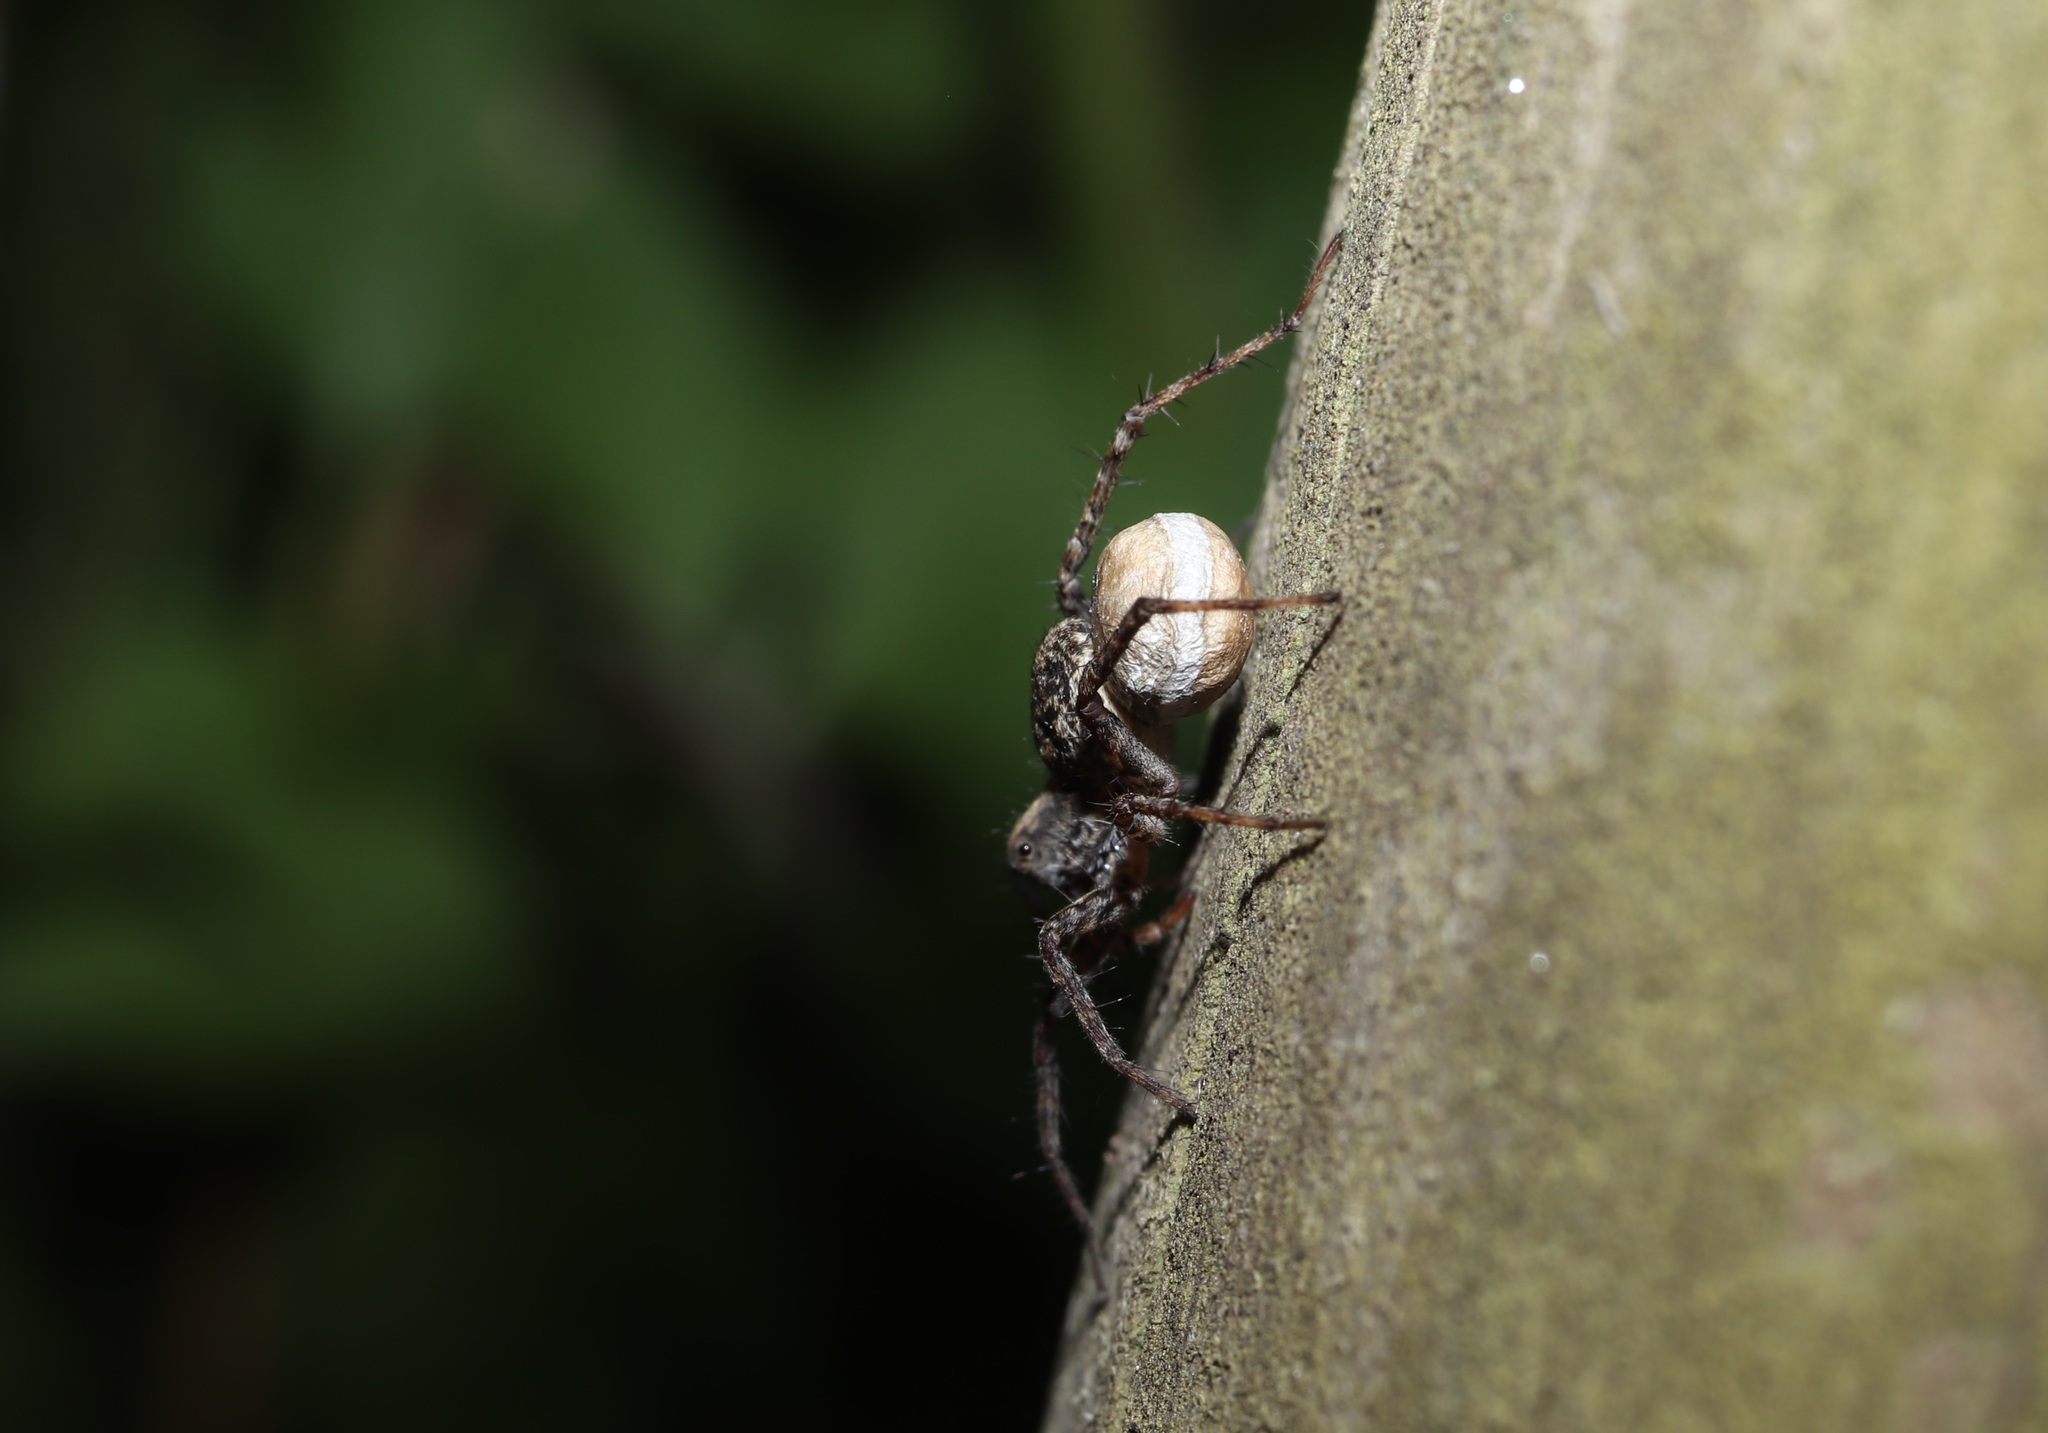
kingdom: Animalia
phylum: Arthropoda
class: Arachnida
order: Araneae
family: Lycosidae
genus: Pardosa
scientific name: Pardosa astrigera
